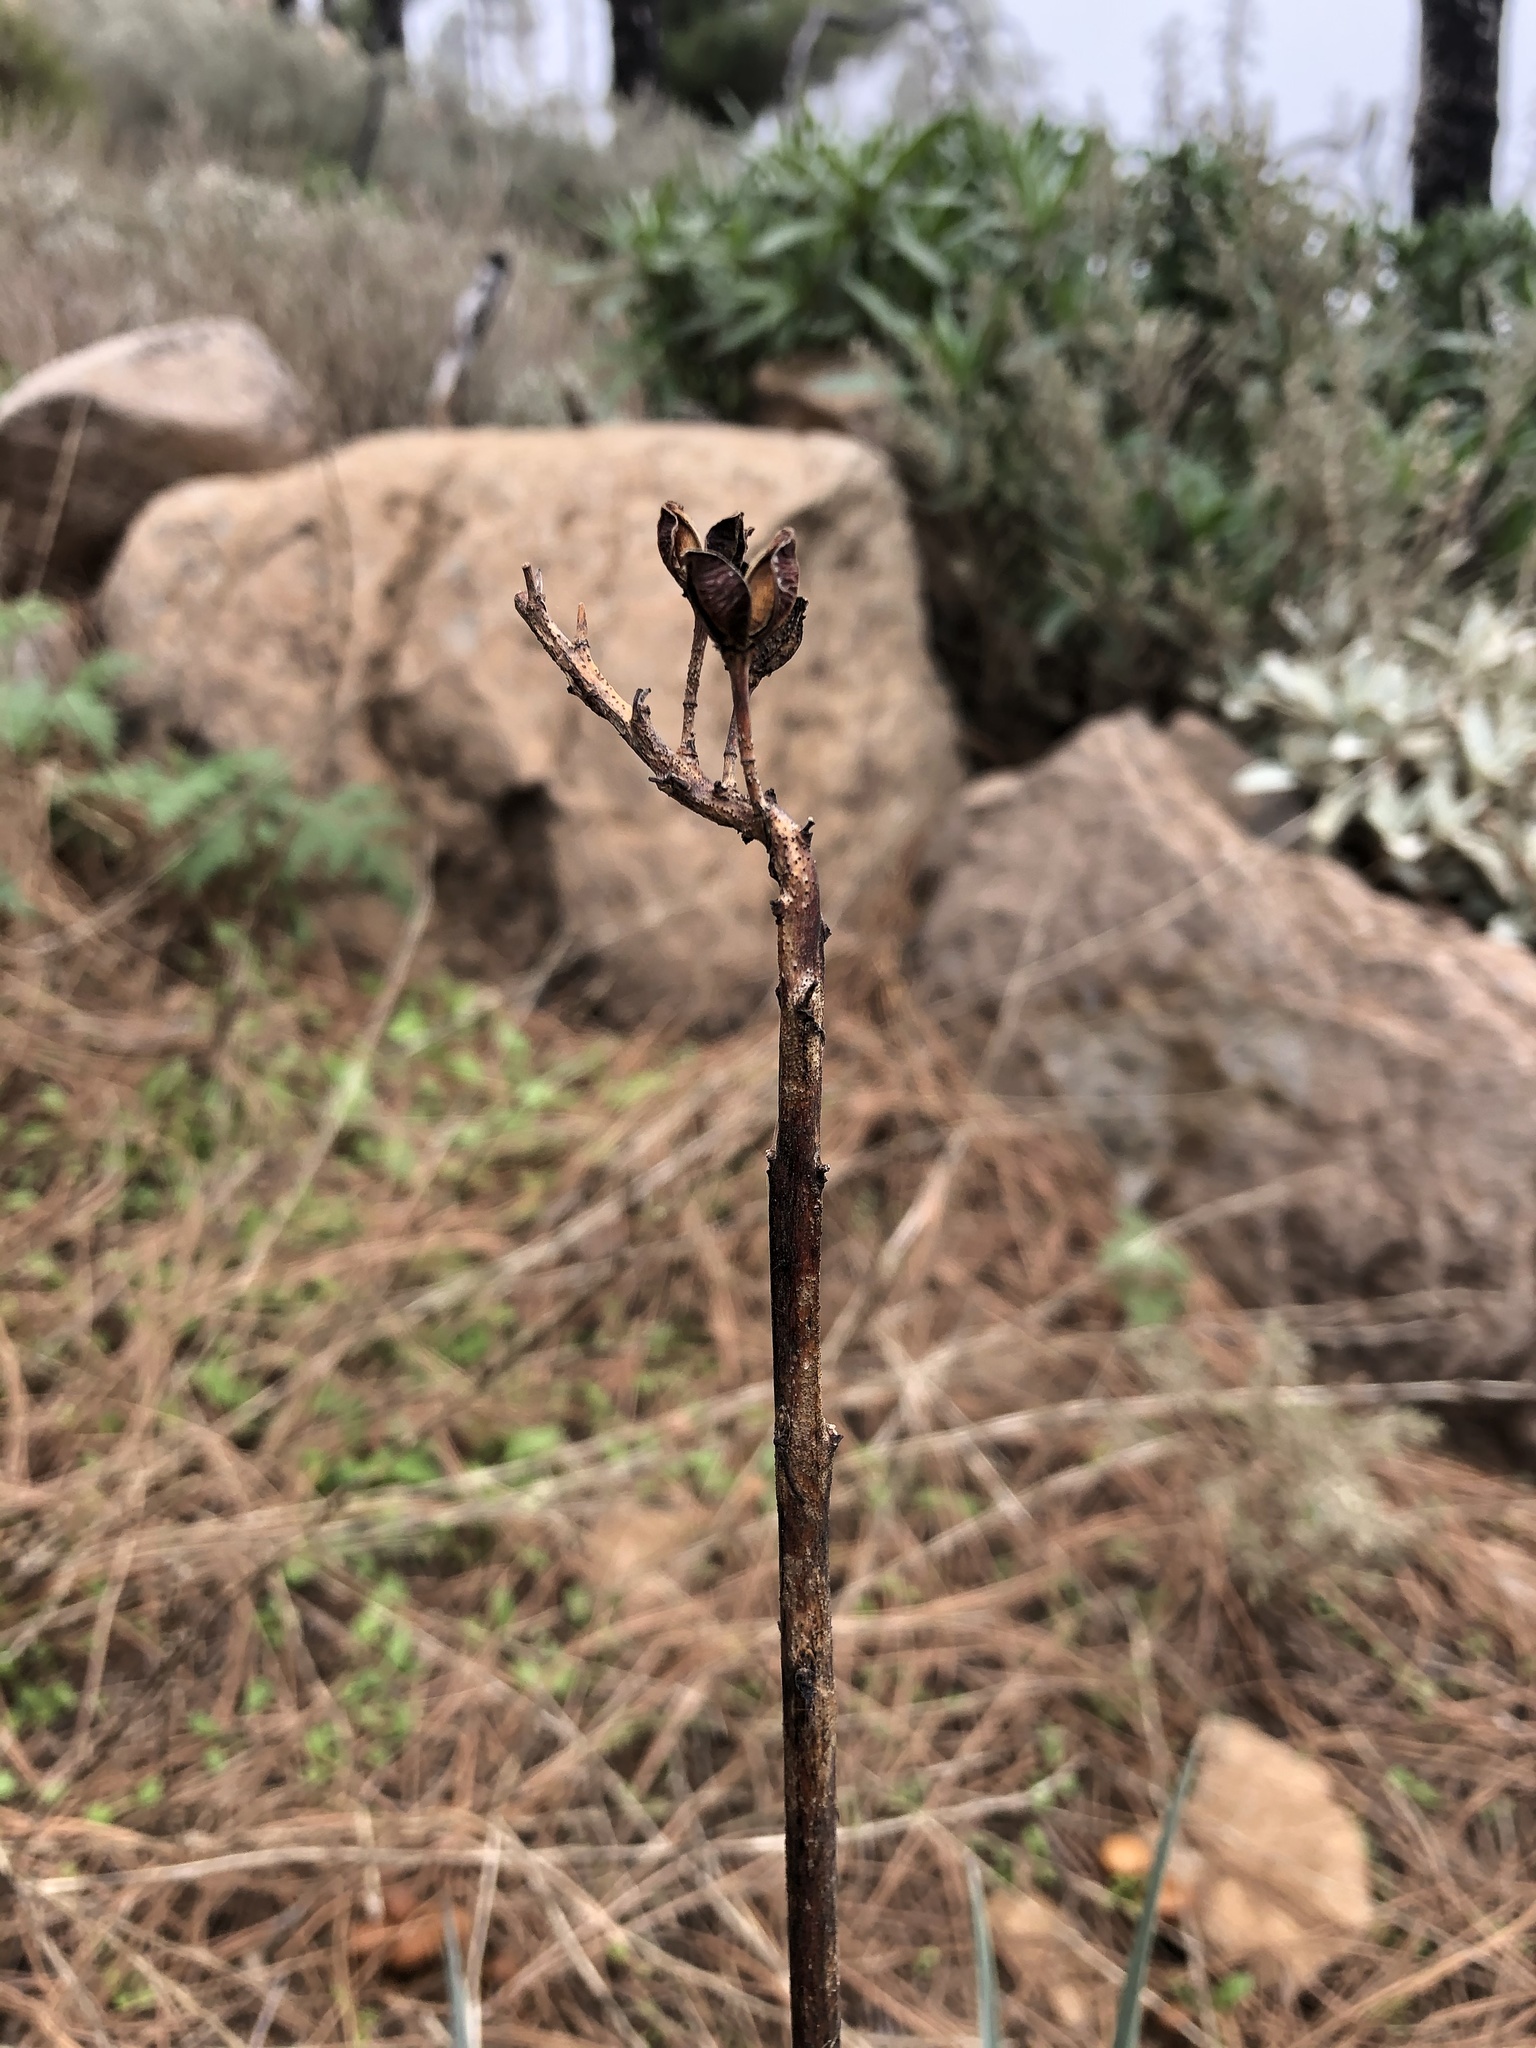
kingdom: Plantae
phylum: Tracheophyta
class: Liliopsida
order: Asparagales
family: Asphodelaceae
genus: Asphodelus
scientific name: Asphodelus ramosus
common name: Silverrod
